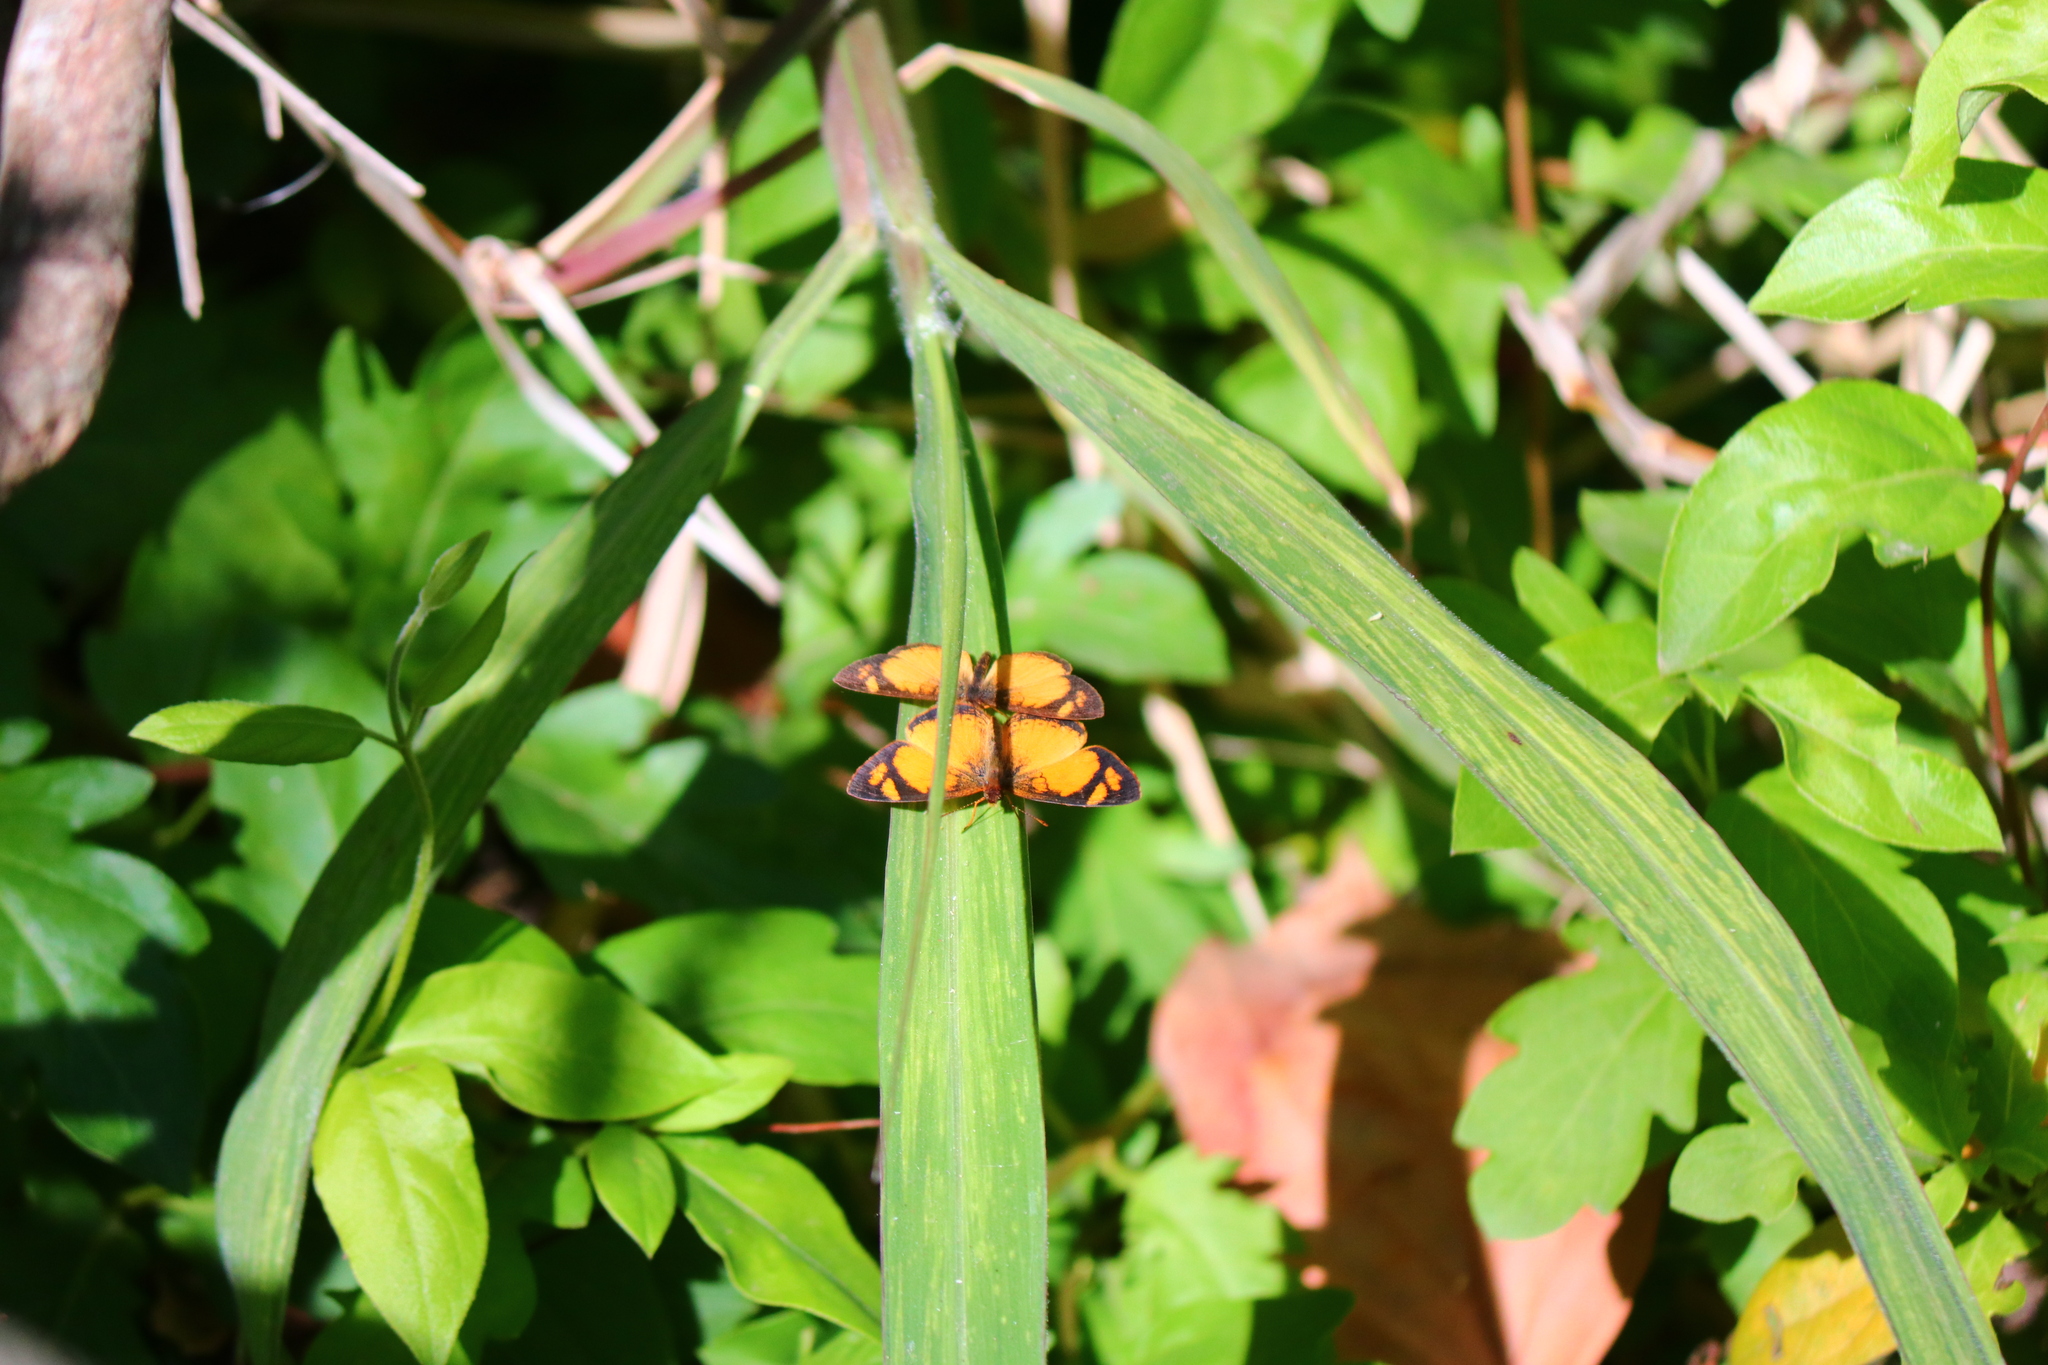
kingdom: Animalia
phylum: Arthropoda
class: Insecta
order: Lepidoptera
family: Nymphalidae
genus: Tegosa
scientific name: Tegosa claudina
